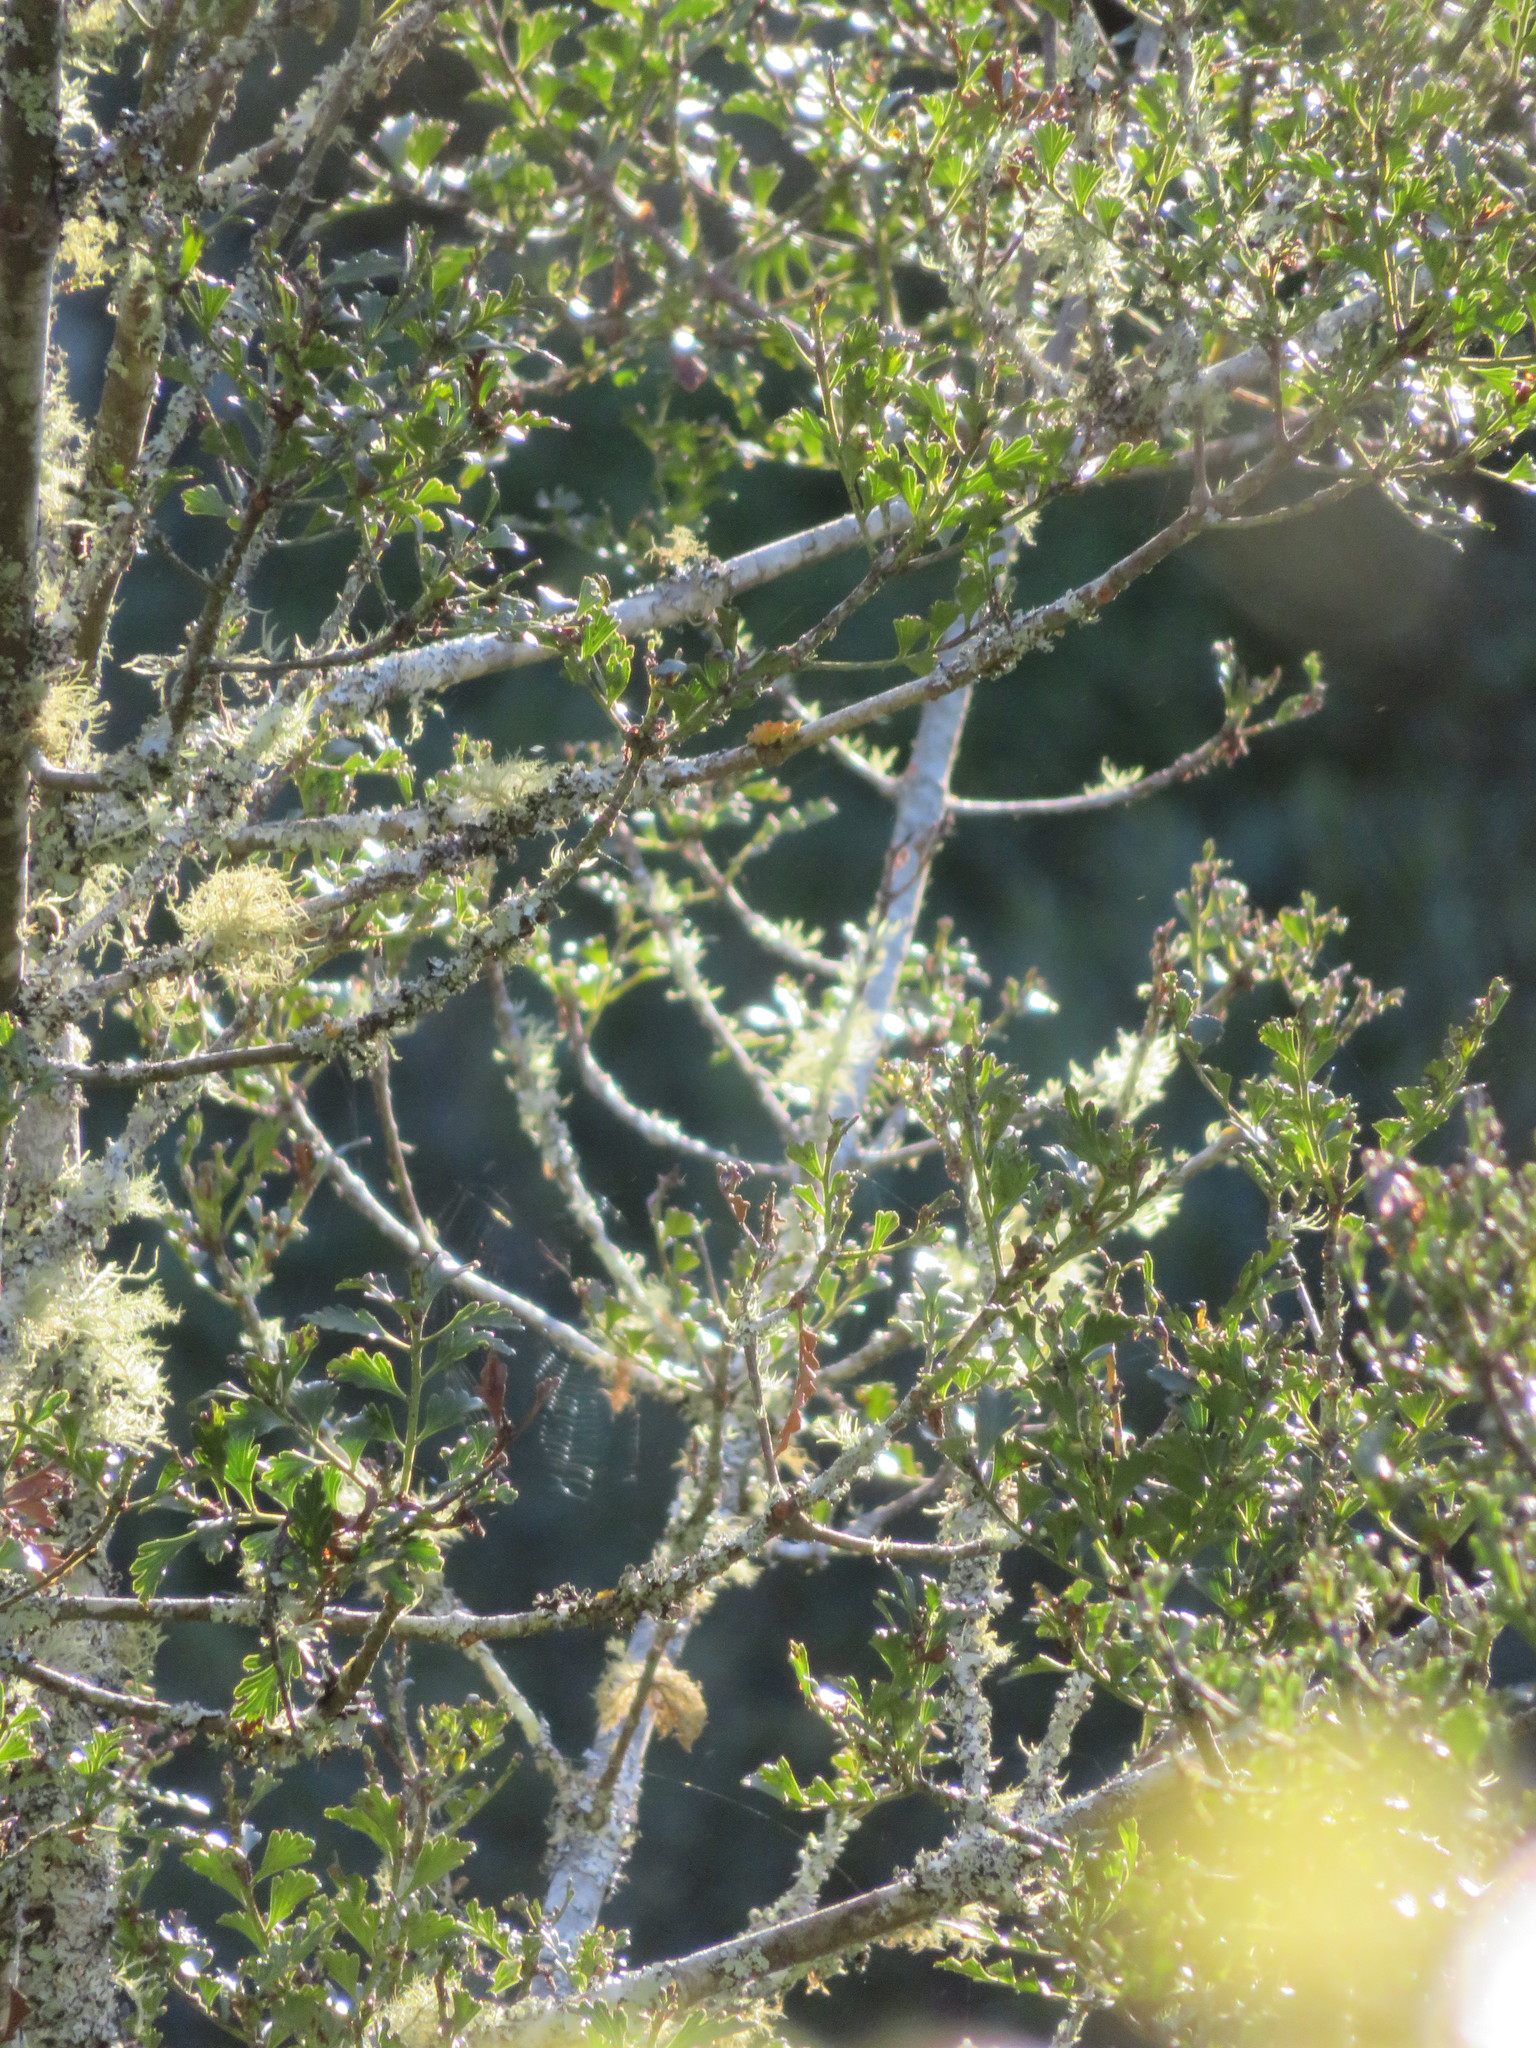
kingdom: Plantae
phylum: Tracheophyta
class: Pinopsida
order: Pinales
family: Phyllocladaceae
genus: Phyllocladus
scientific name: Phyllocladus trichomanoides
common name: Celery pine
